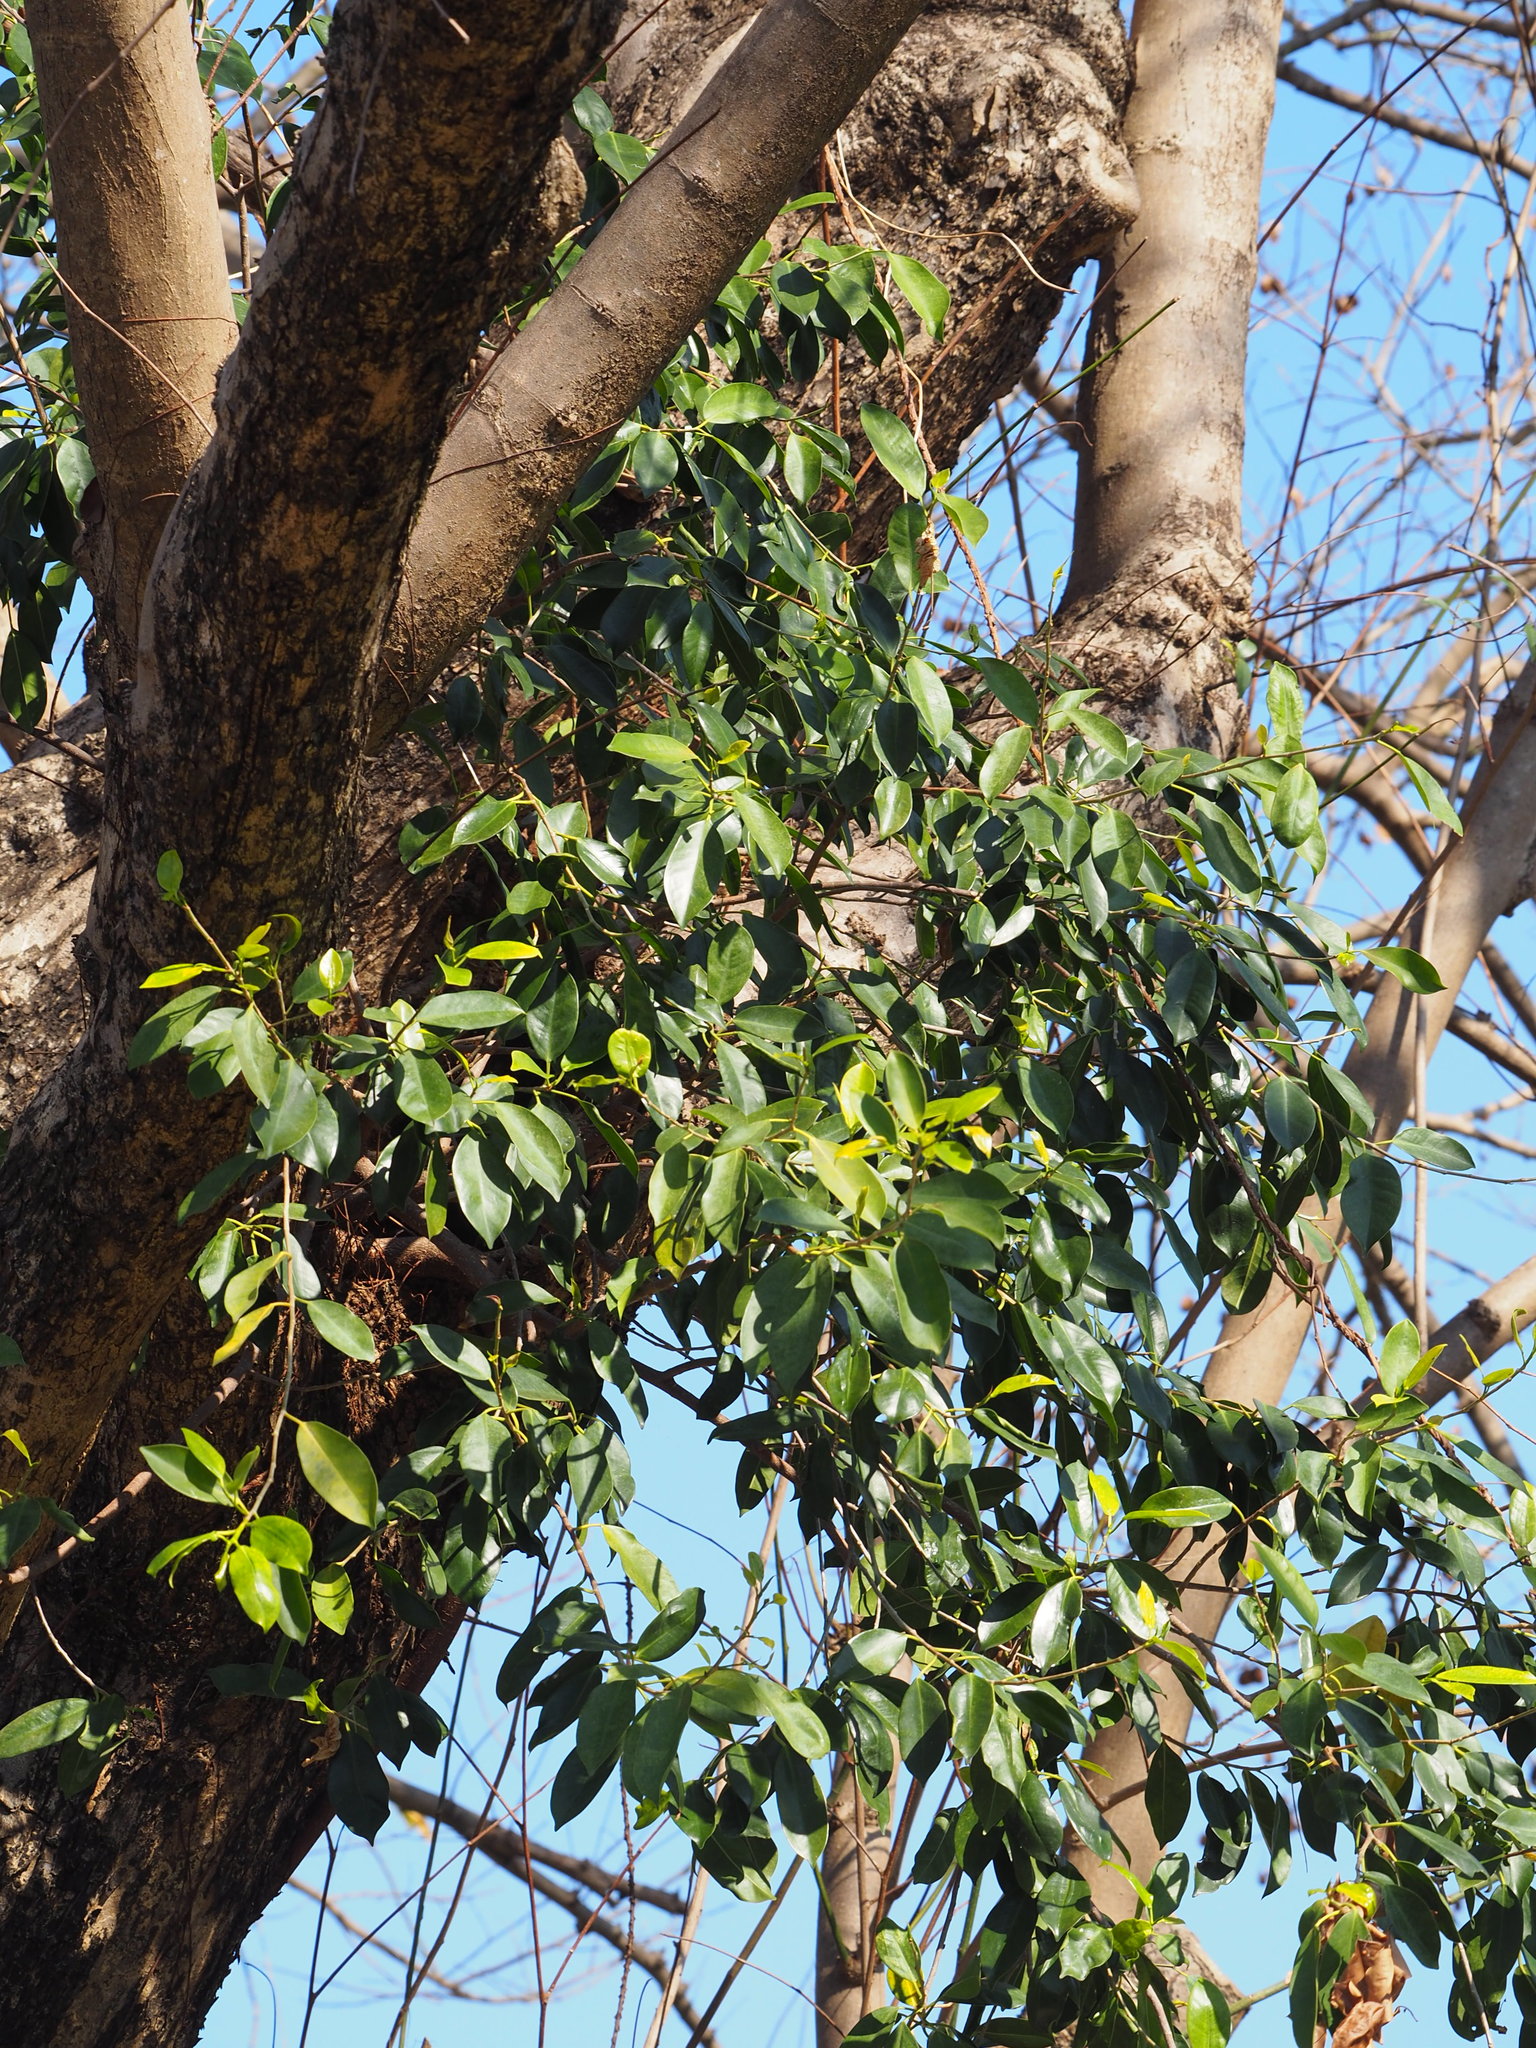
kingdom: Plantae
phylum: Tracheophyta
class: Magnoliopsida
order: Rosales
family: Moraceae
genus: Ficus
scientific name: Ficus microcarpa
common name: Chinese banyan
